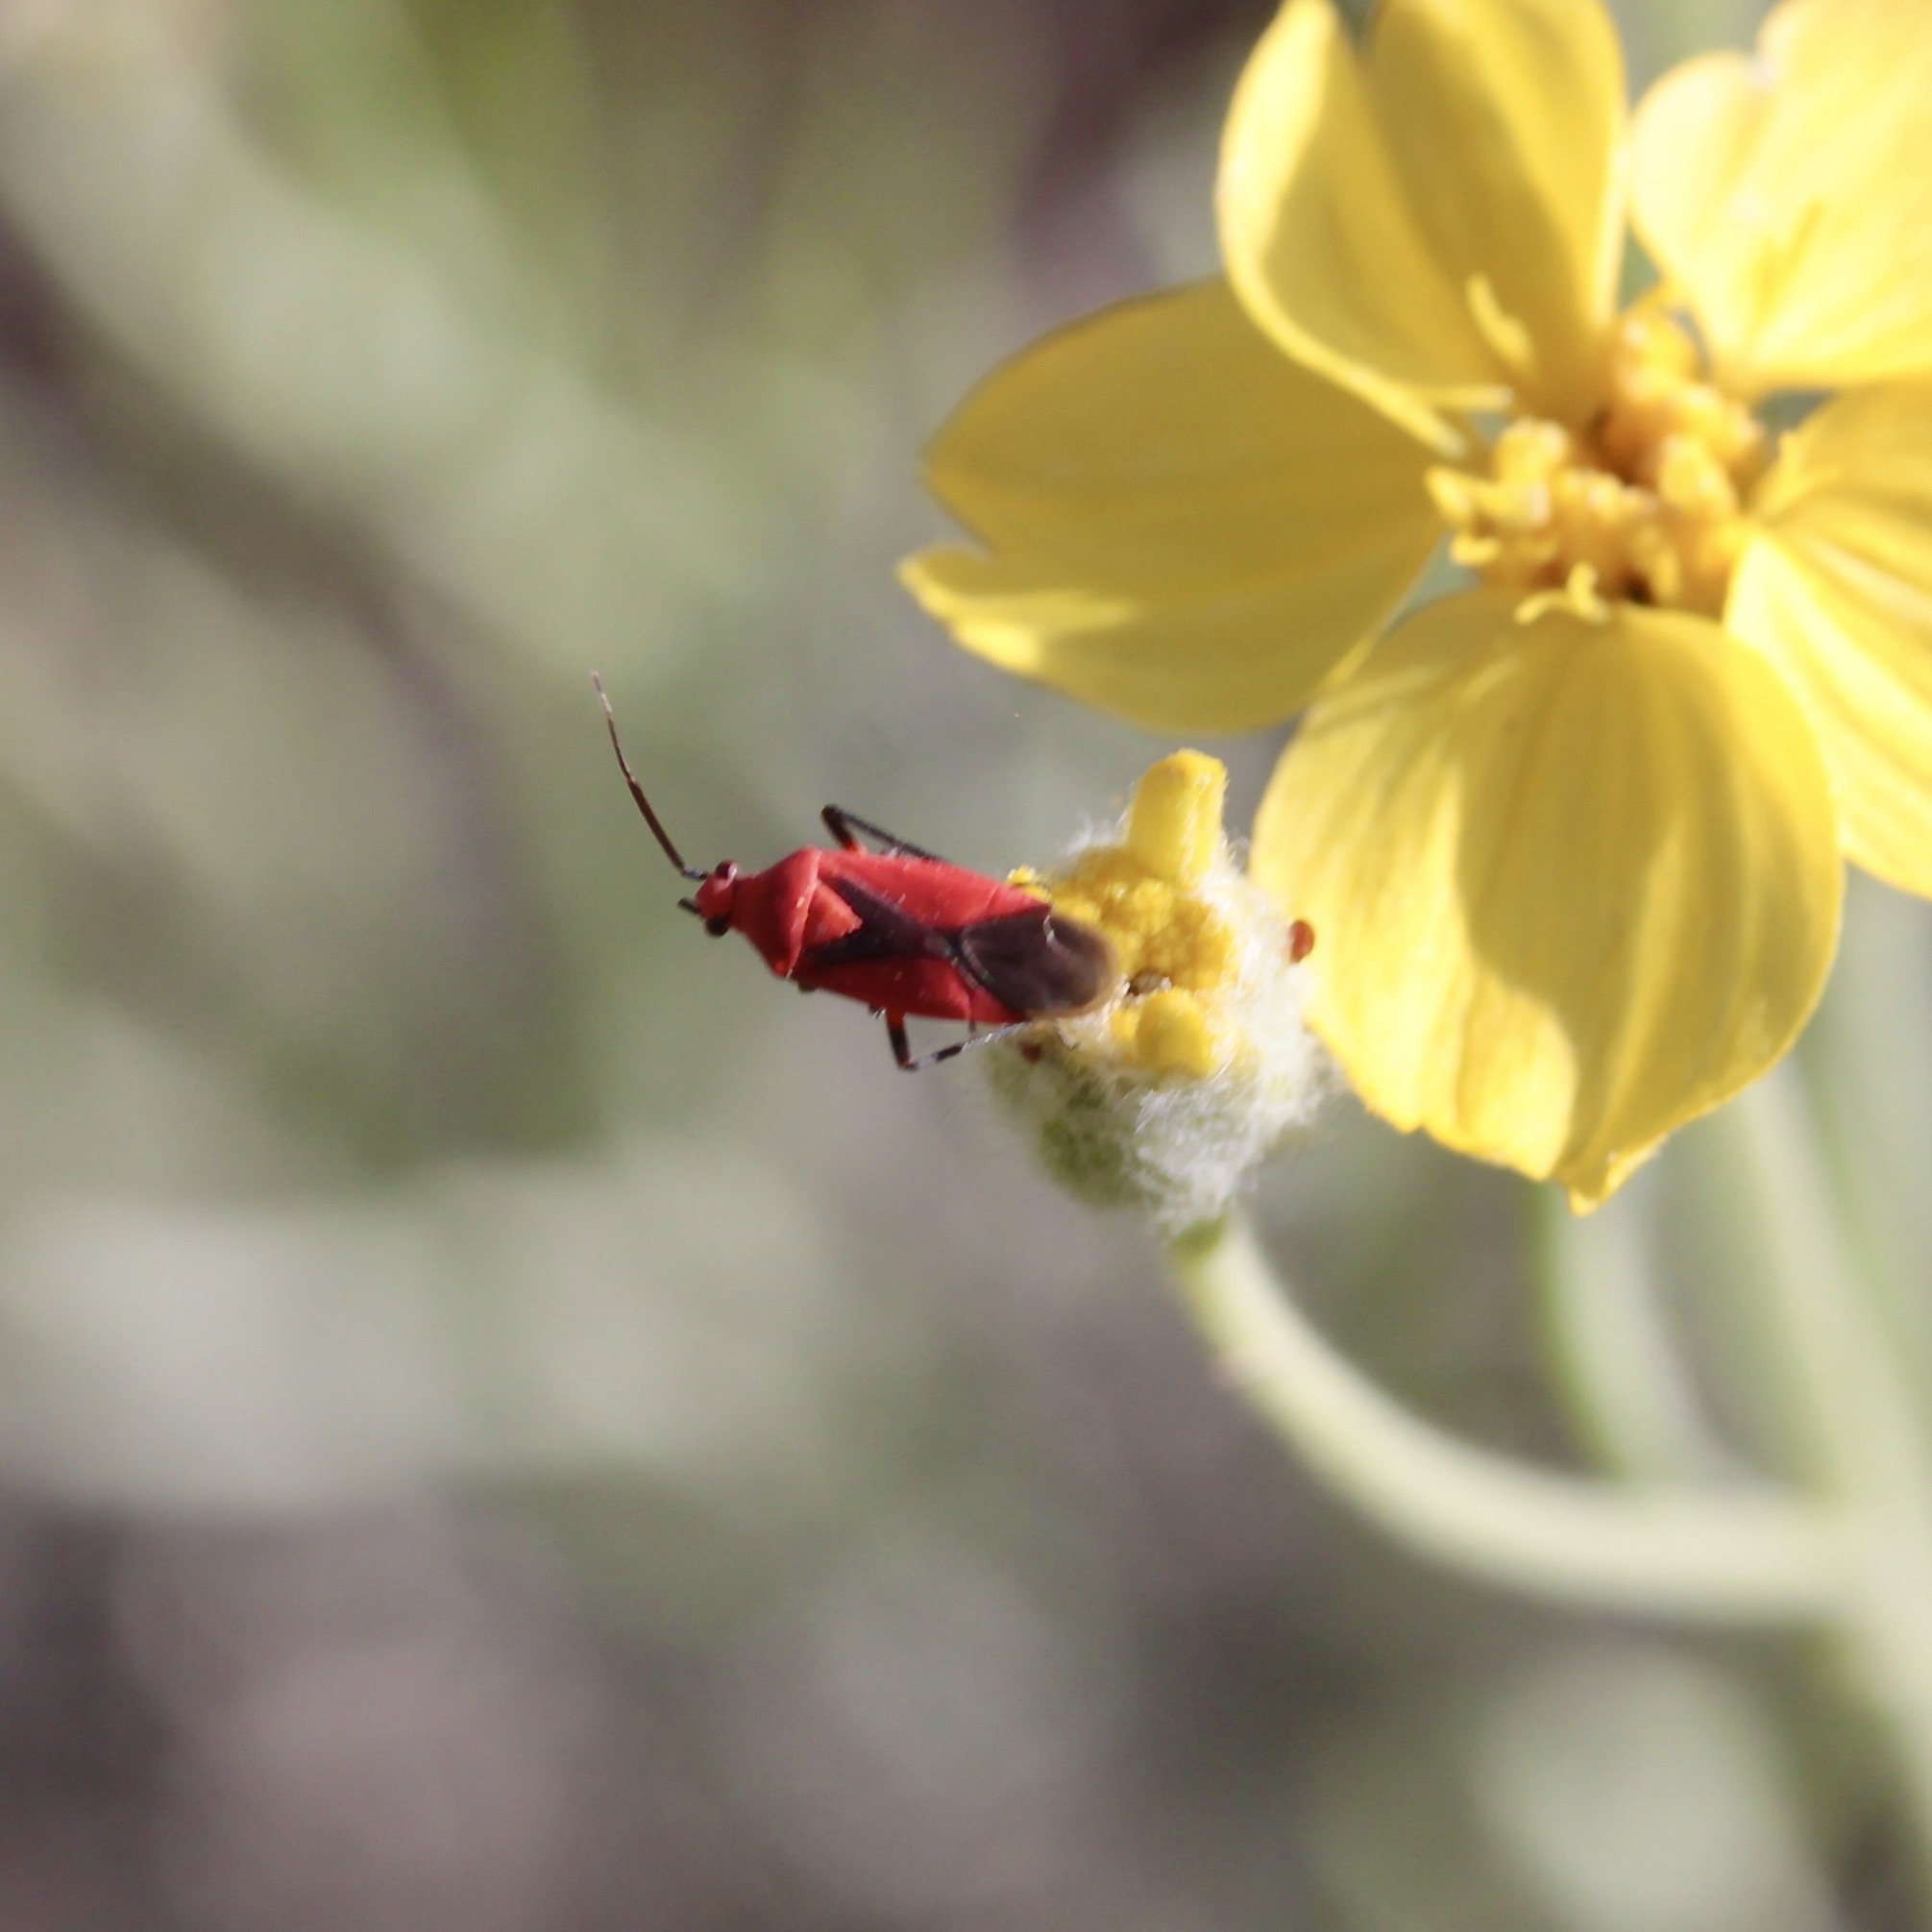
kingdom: Animalia
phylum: Arthropoda
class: Insecta
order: Hemiptera
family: Miridae
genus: Oncerometopus
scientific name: Oncerometopus nigriclavus
